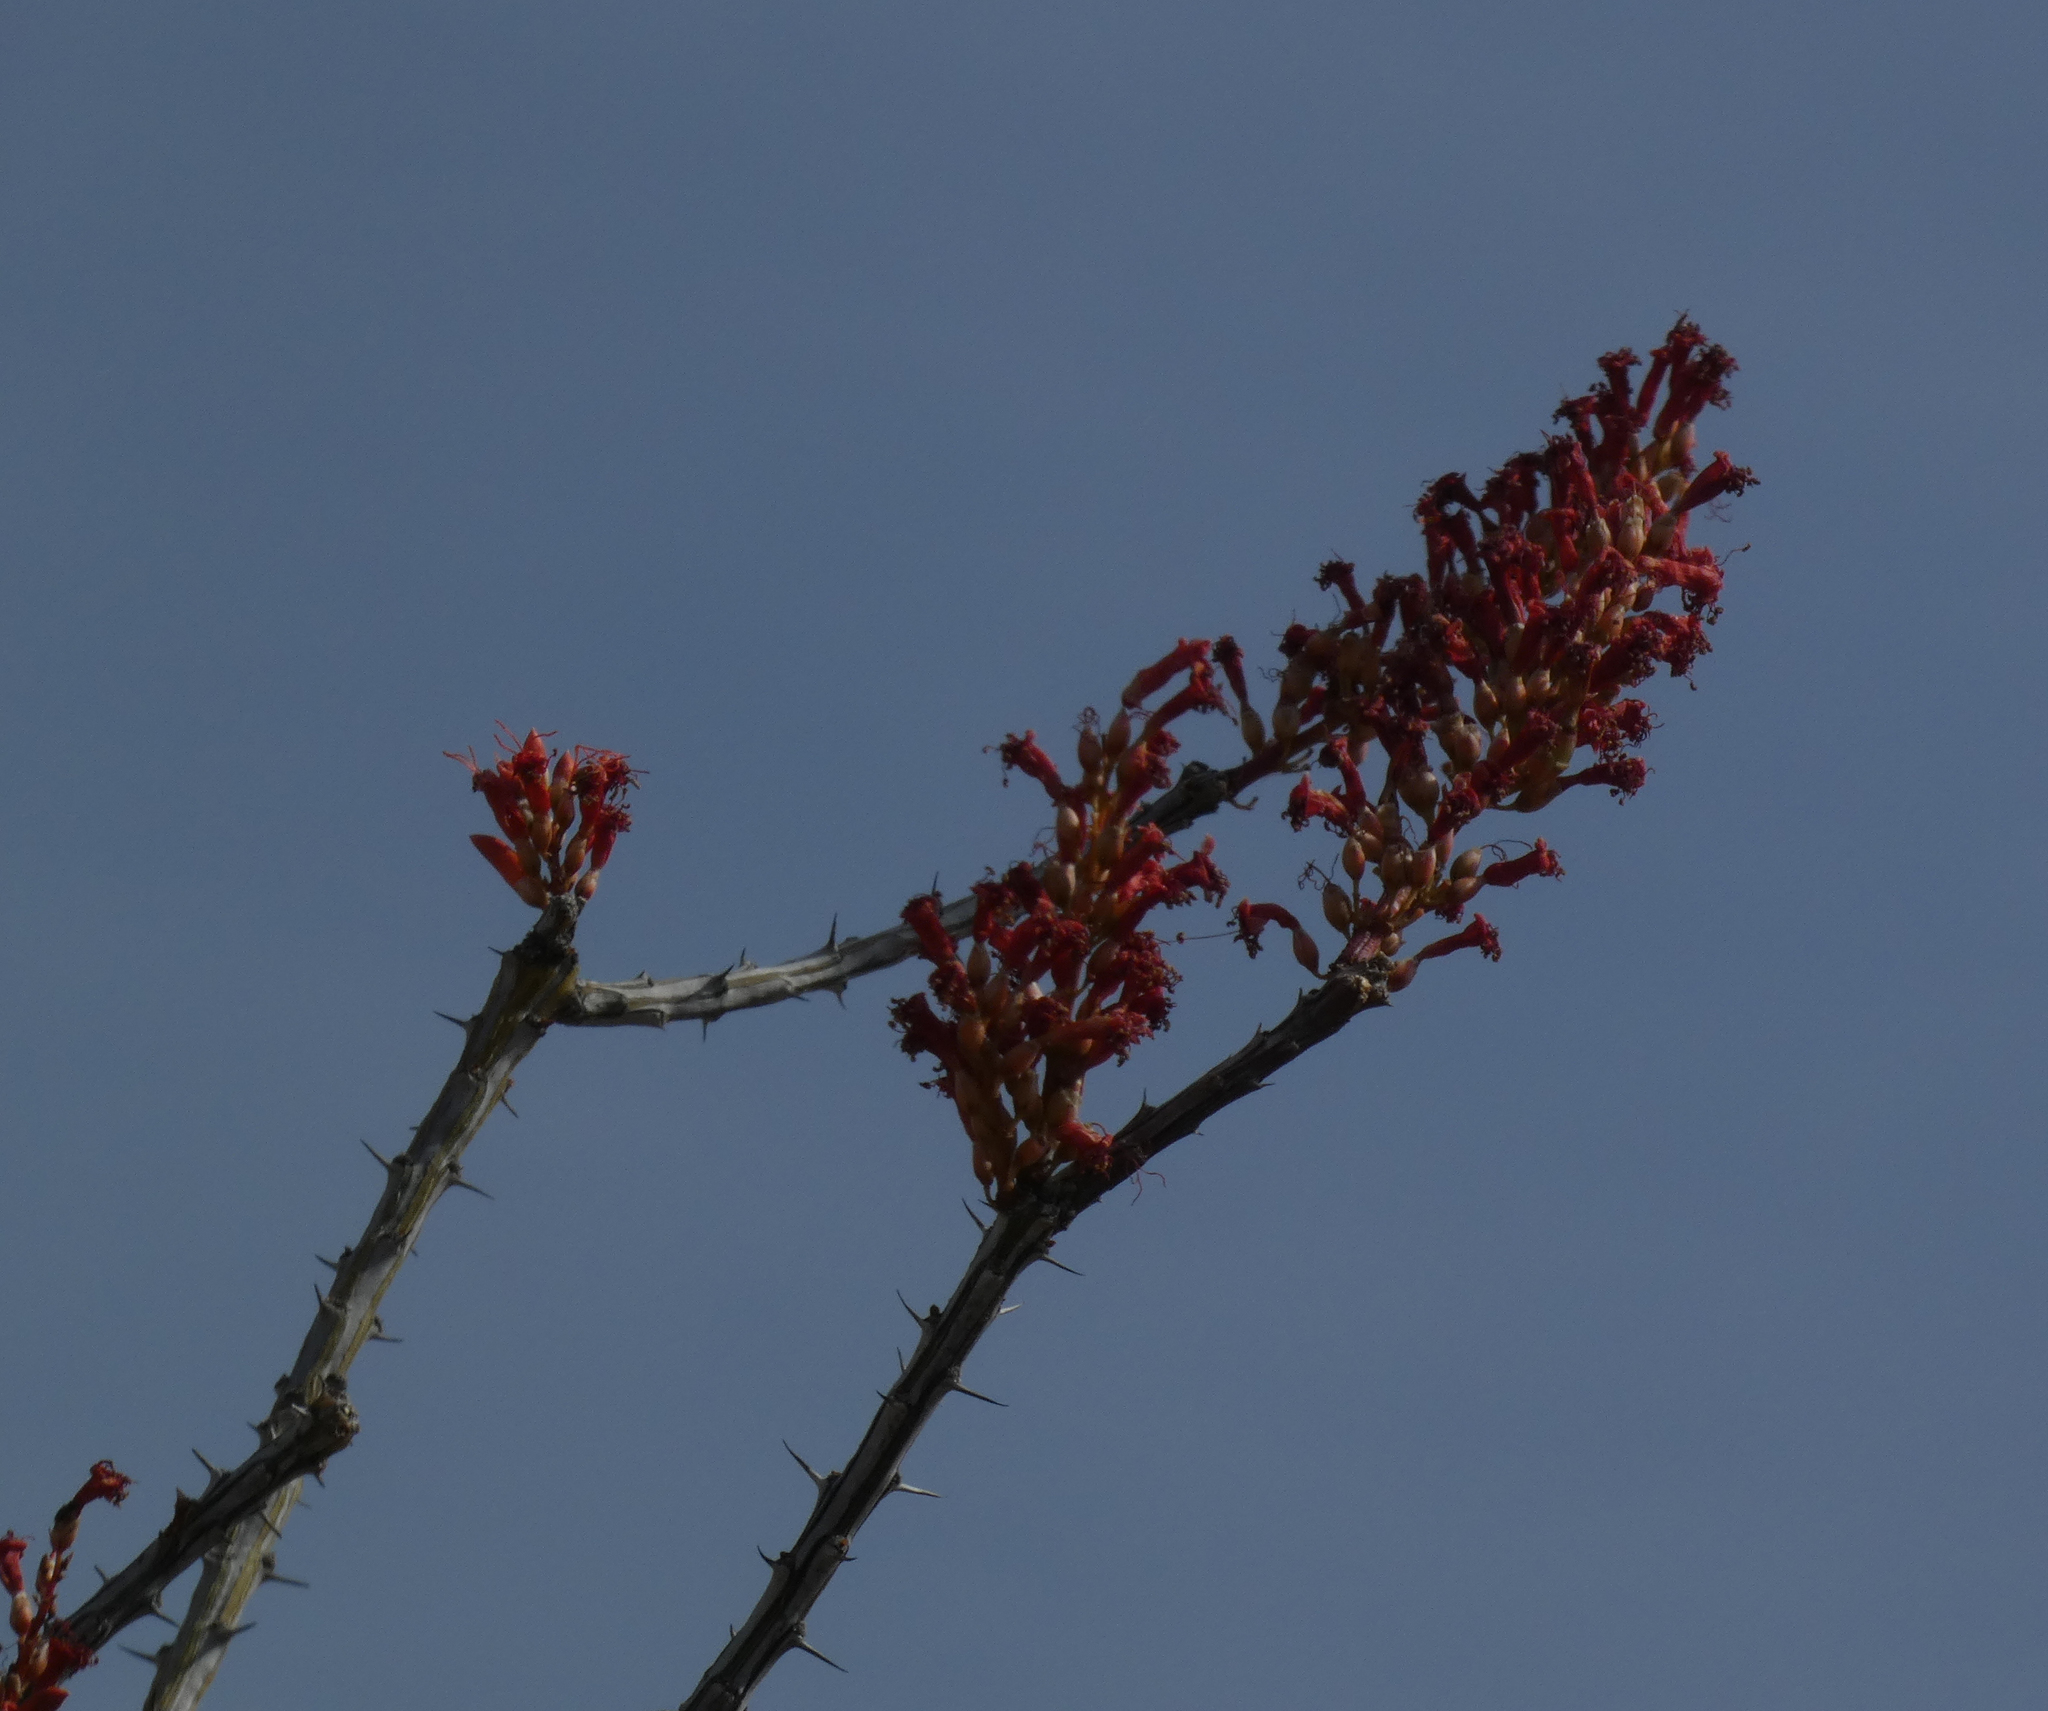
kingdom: Plantae
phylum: Tracheophyta
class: Magnoliopsida
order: Ericales
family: Fouquieriaceae
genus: Fouquieria
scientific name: Fouquieria splendens
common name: Vine-cactus
